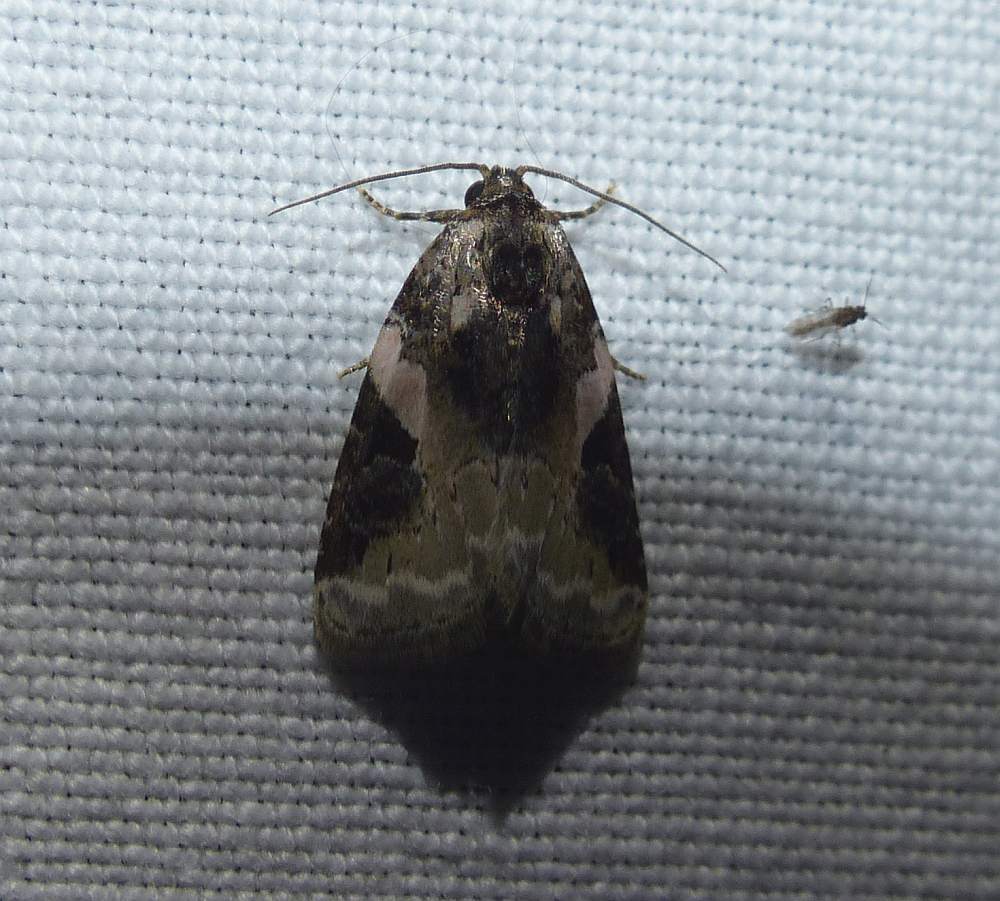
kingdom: Animalia
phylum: Arthropoda
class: Insecta
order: Lepidoptera
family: Noctuidae
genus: Pseudeustrotia
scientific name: Pseudeustrotia carneola
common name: Pink-barred lithacodia moth
